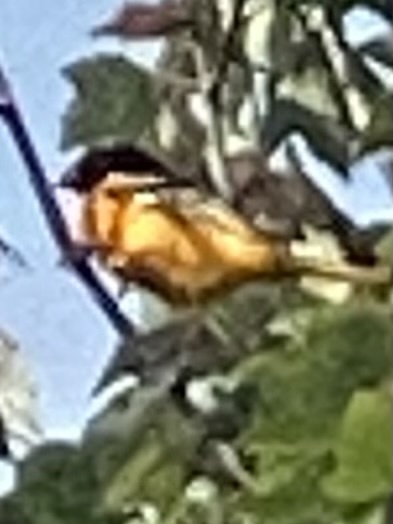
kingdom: Animalia
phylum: Chordata
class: Aves
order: Passeriformes
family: Icteridae
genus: Icterus
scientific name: Icterus galbula
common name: Baltimore oriole
